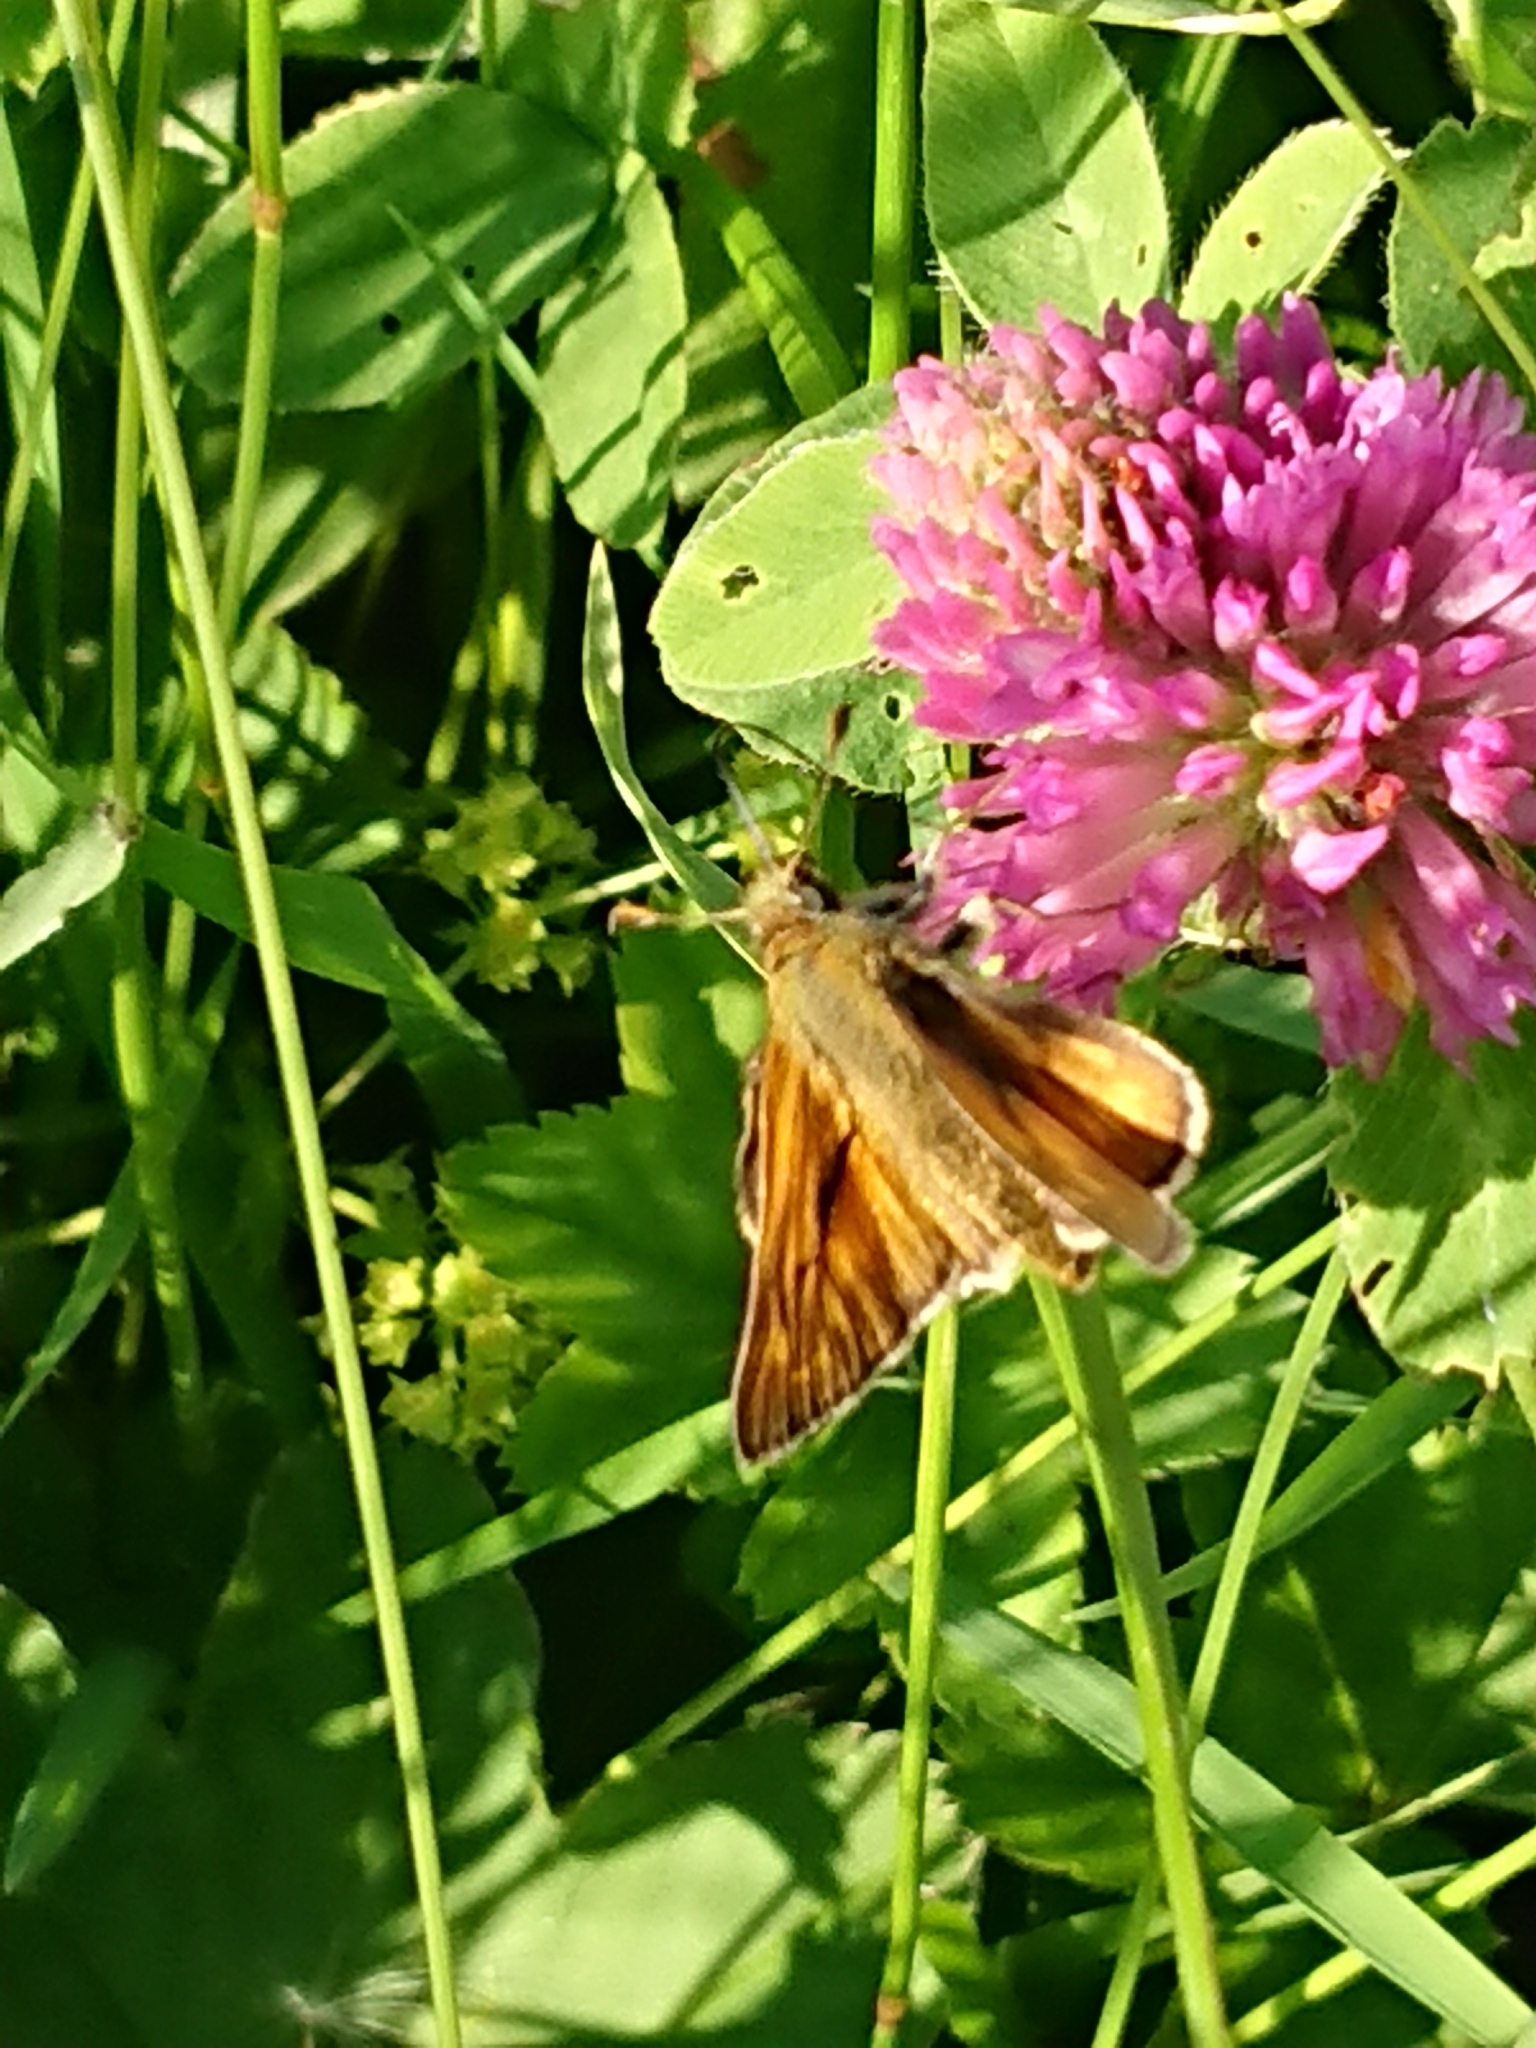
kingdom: Animalia
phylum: Arthropoda
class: Insecta
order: Lepidoptera
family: Hesperiidae
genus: Ochlodes
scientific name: Ochlodes venata
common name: Large skipper
